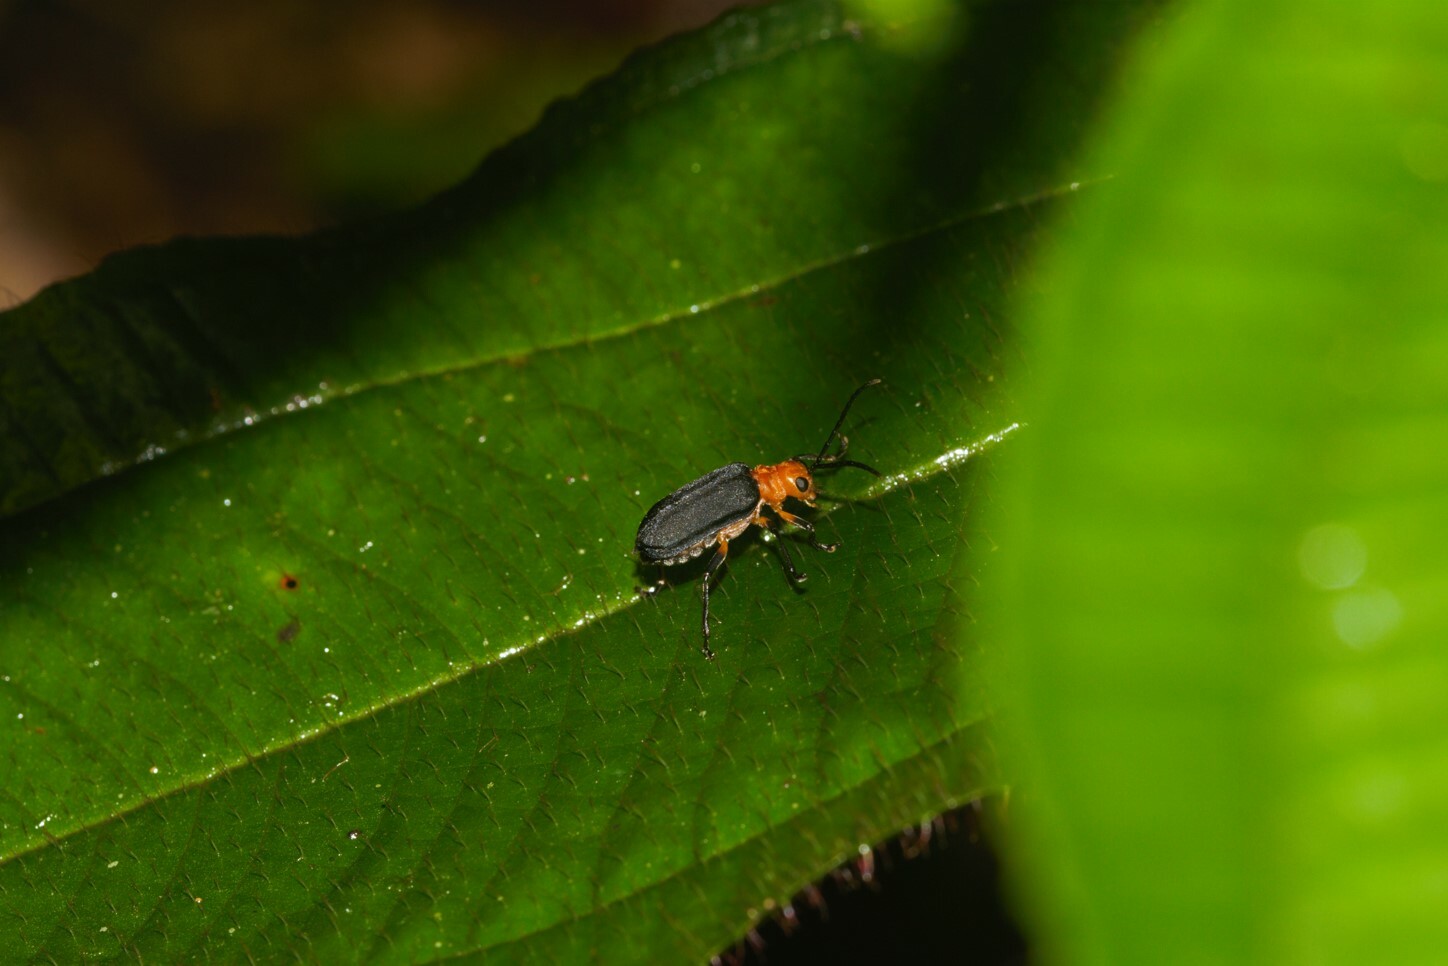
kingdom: Animalia
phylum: Arthropoda
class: Insecta
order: Coleoptera
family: Chrysomelidae
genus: Dircema
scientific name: Dircema ruficrus
